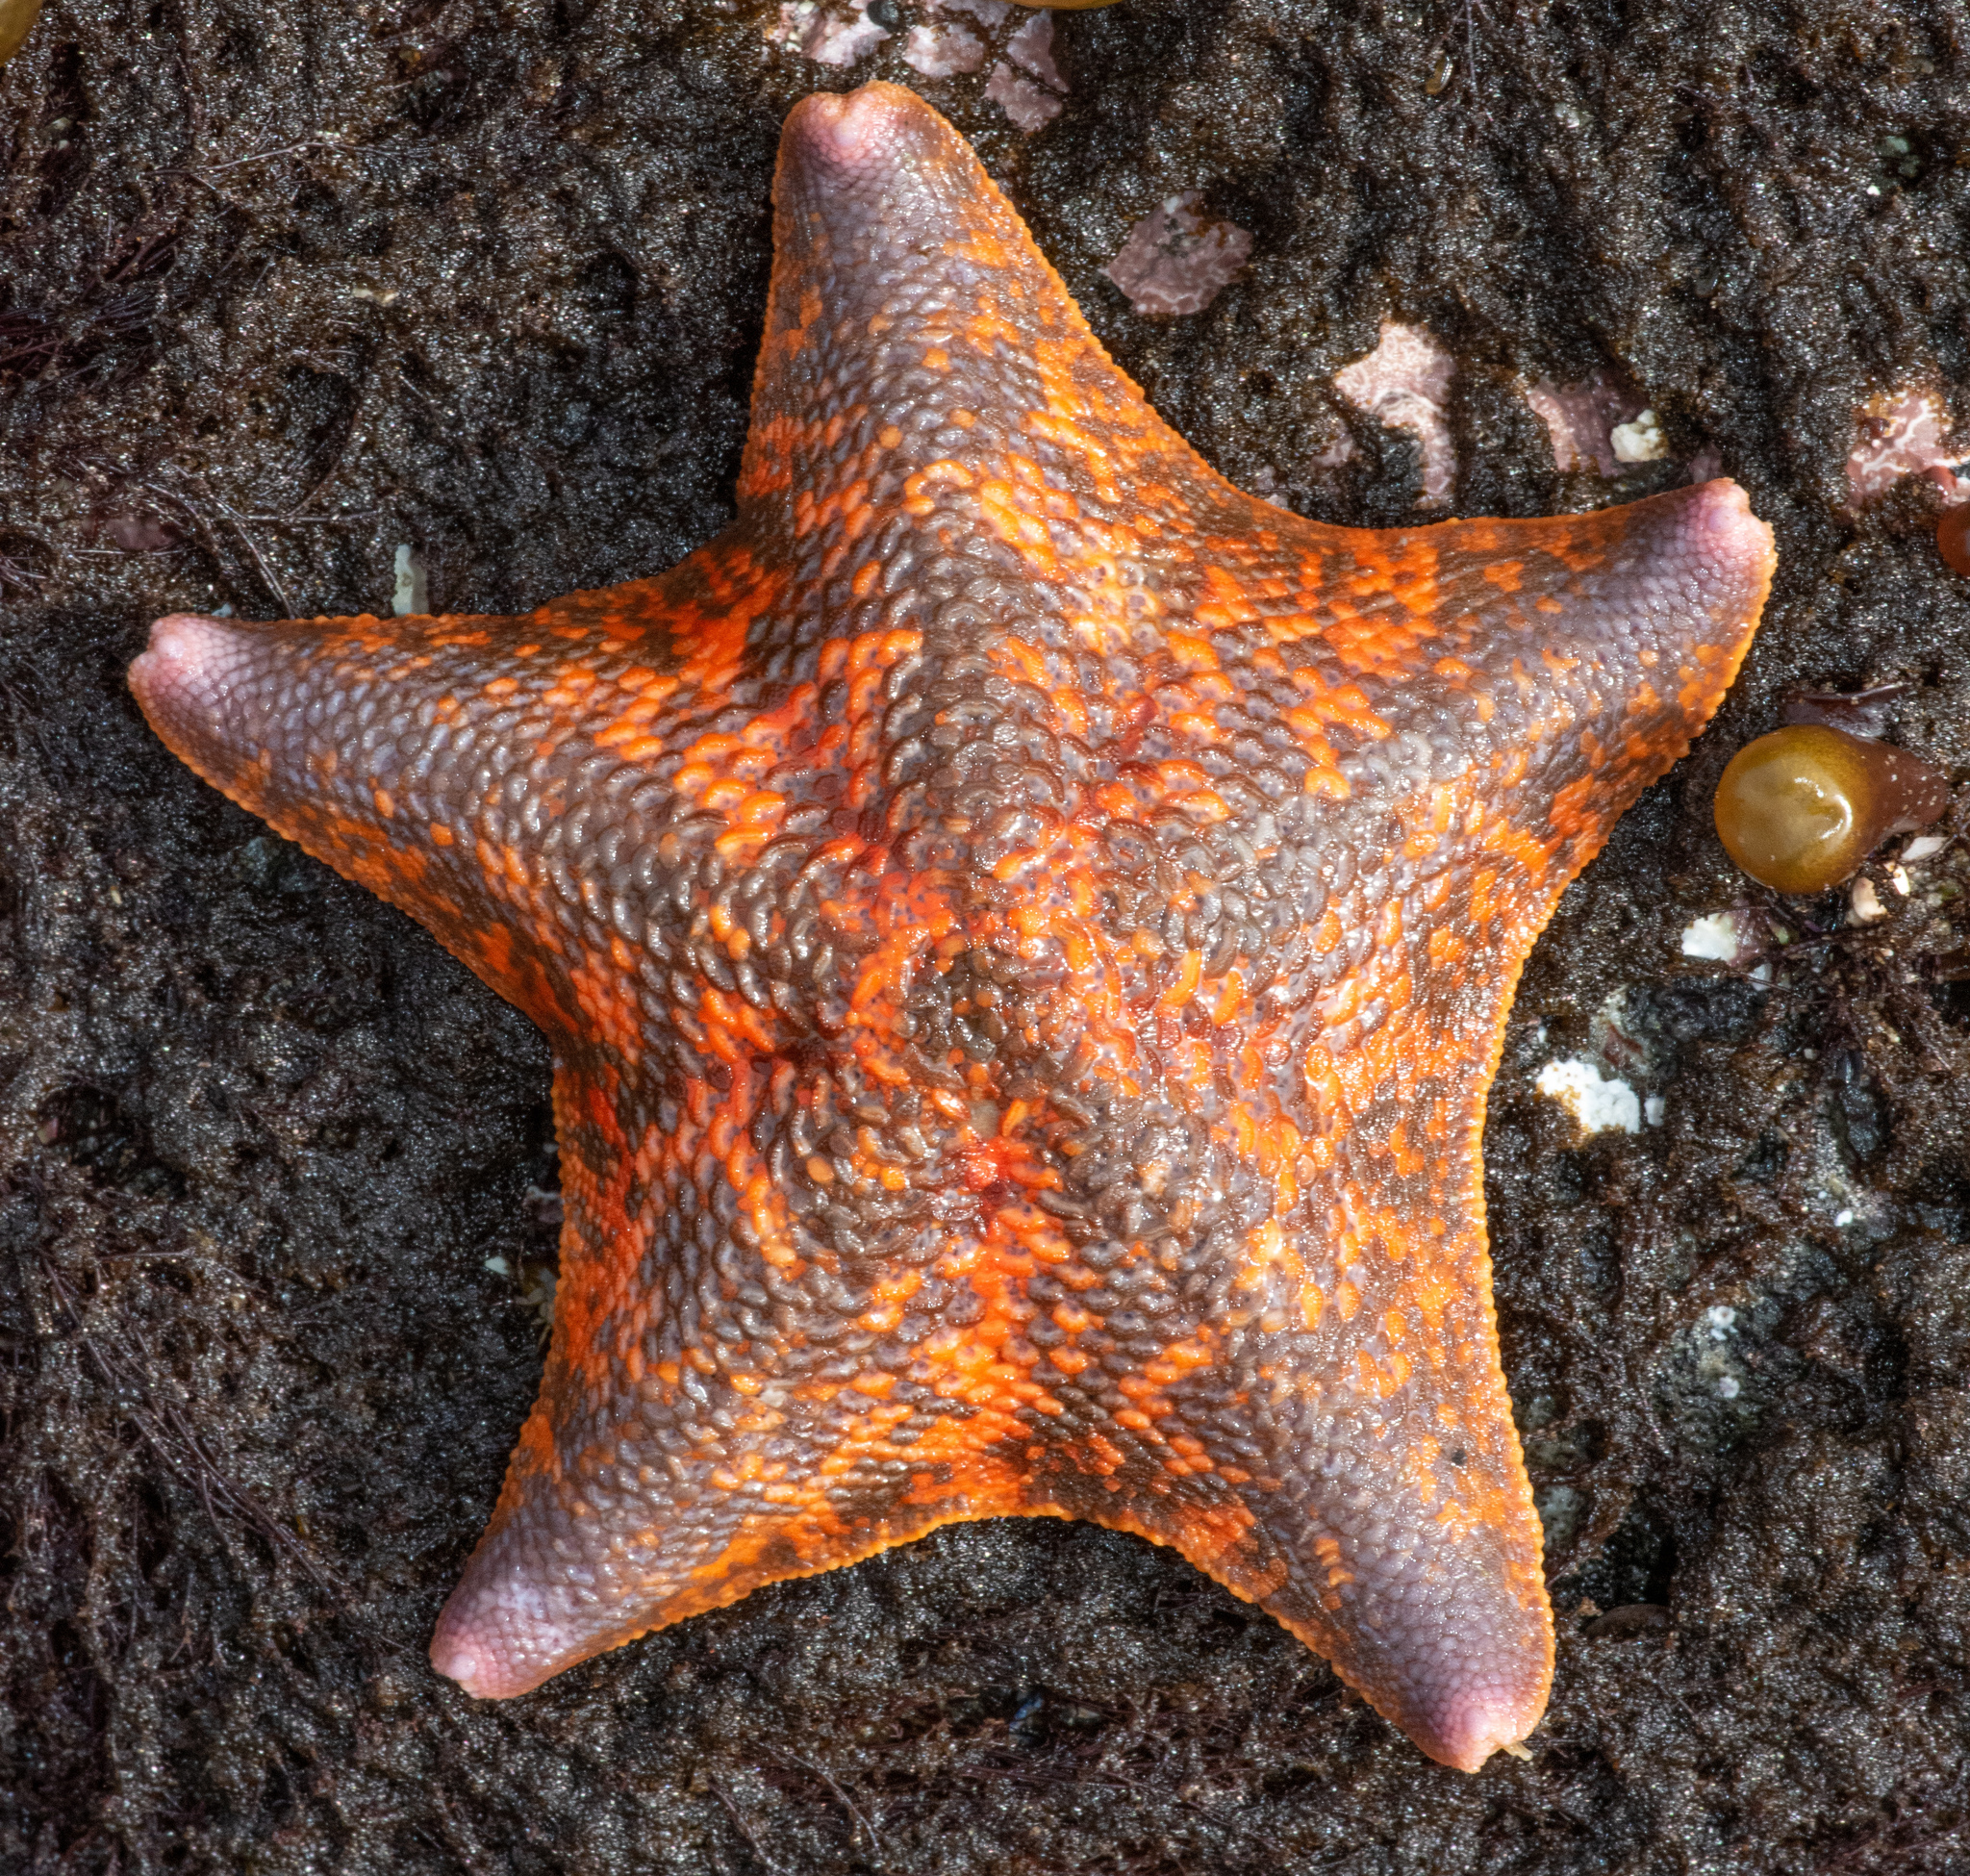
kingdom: Animalia
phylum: Echinodermata
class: Asteroidea
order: Valvatida
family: Asterinidae
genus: Patiria
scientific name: Patiria miniata
